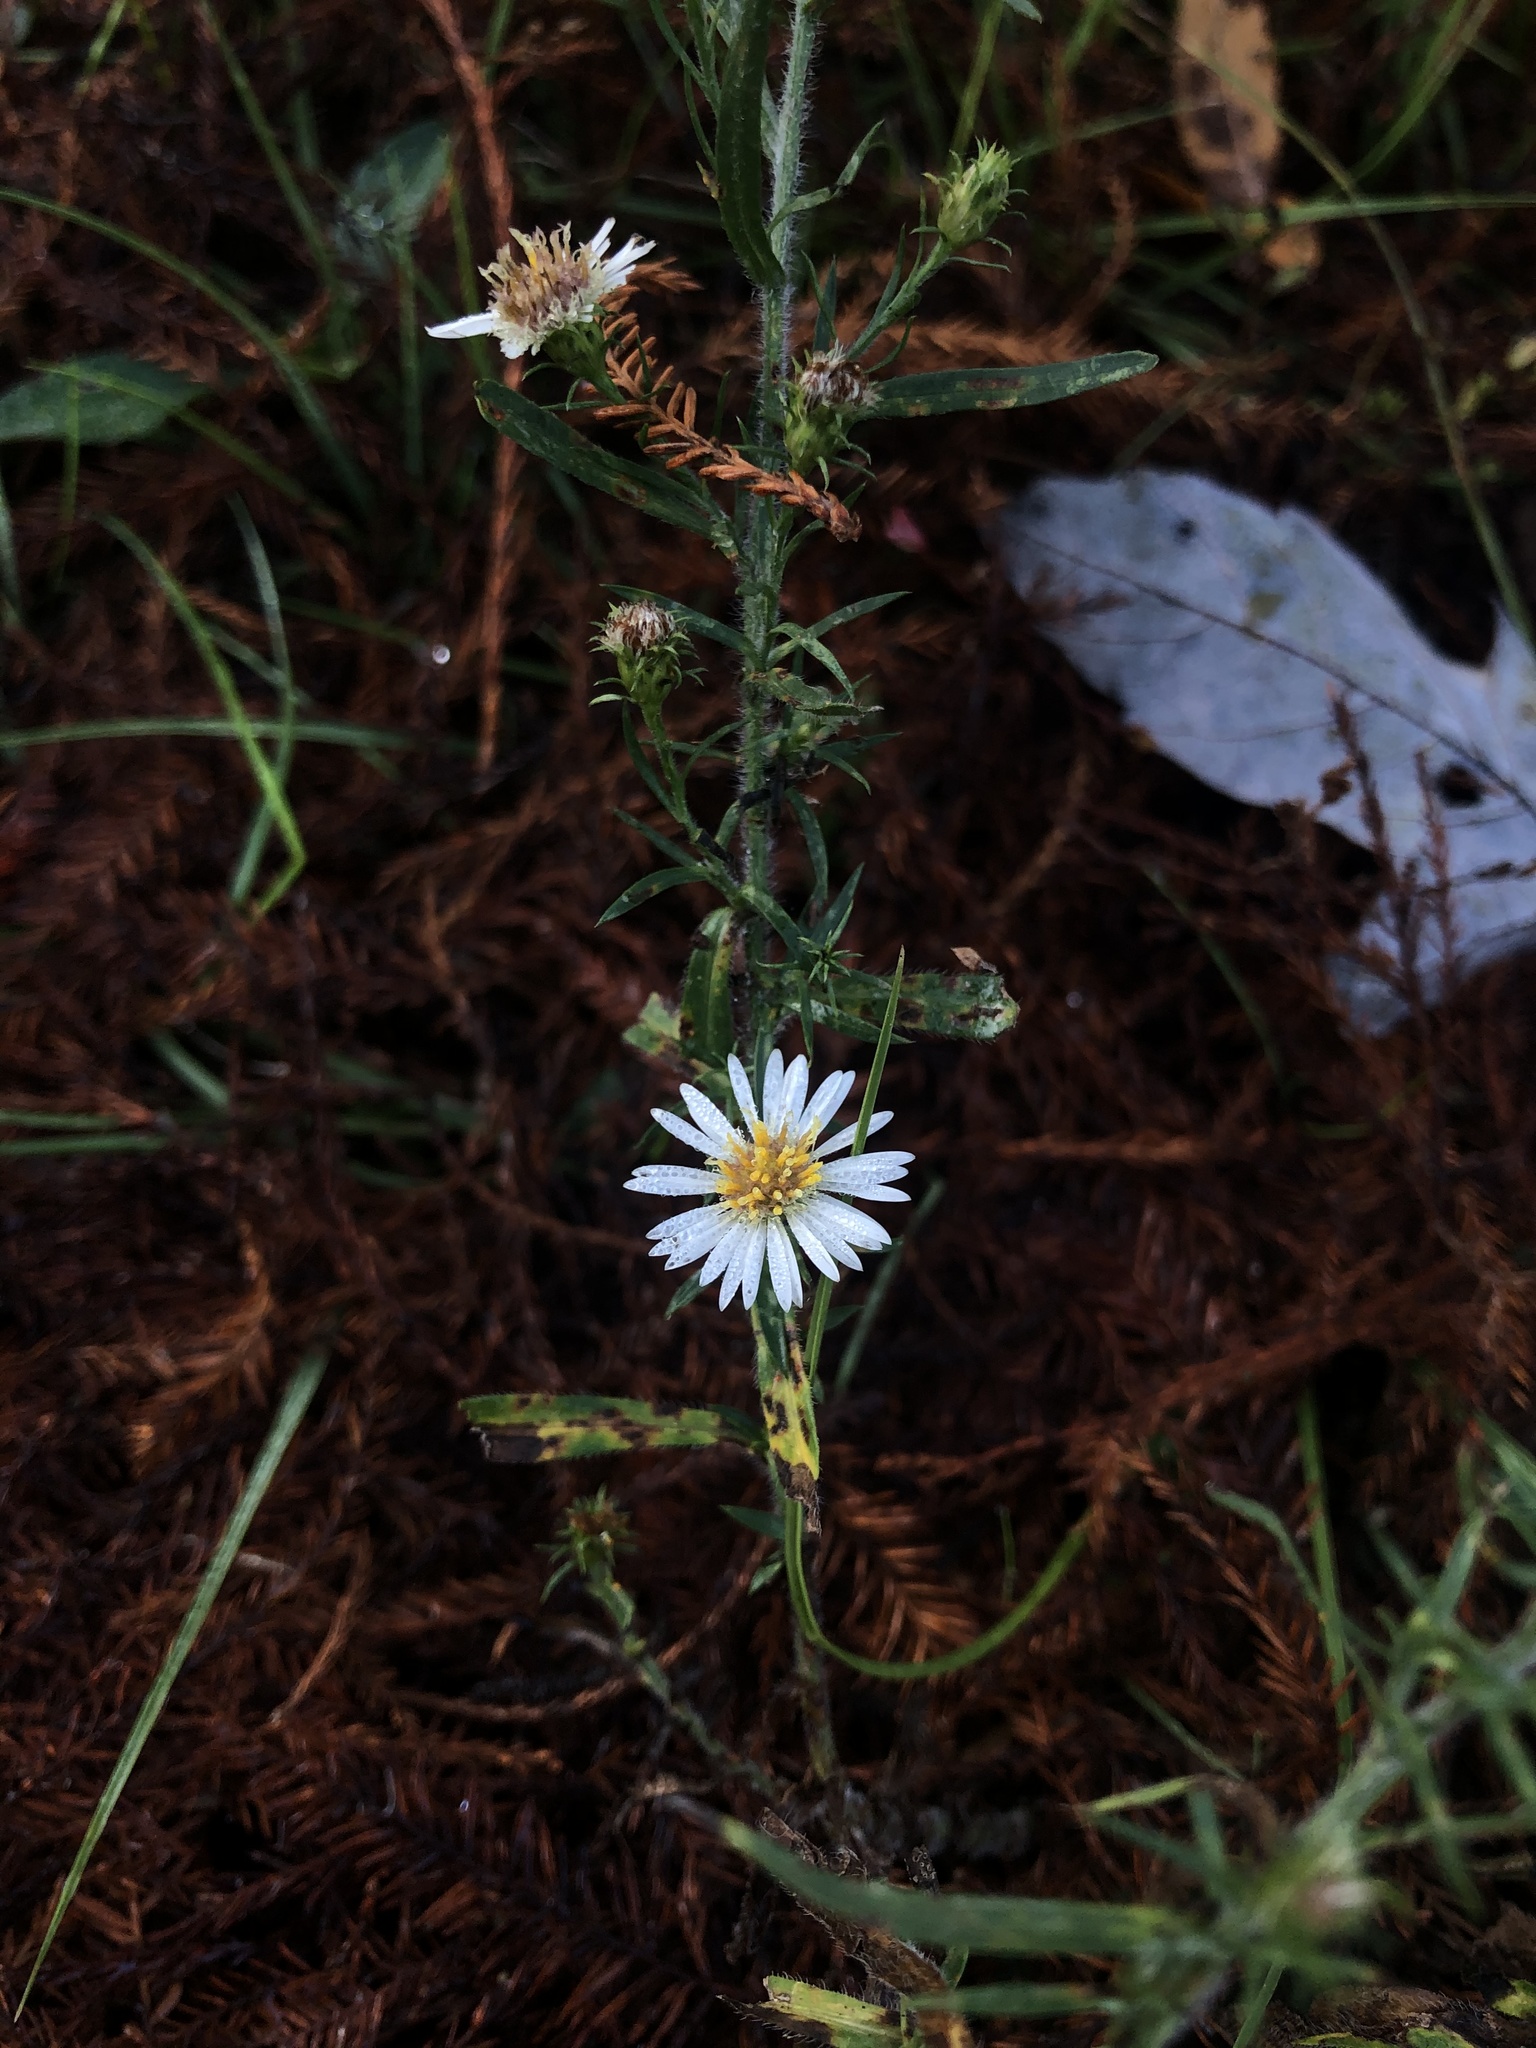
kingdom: Plantae
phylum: Tracheophyta
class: Magnoliopsida
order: Asterales
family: Asteraceae
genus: Symphyotrichum
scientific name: Symphyotrichum pilosum
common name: Awl aster
